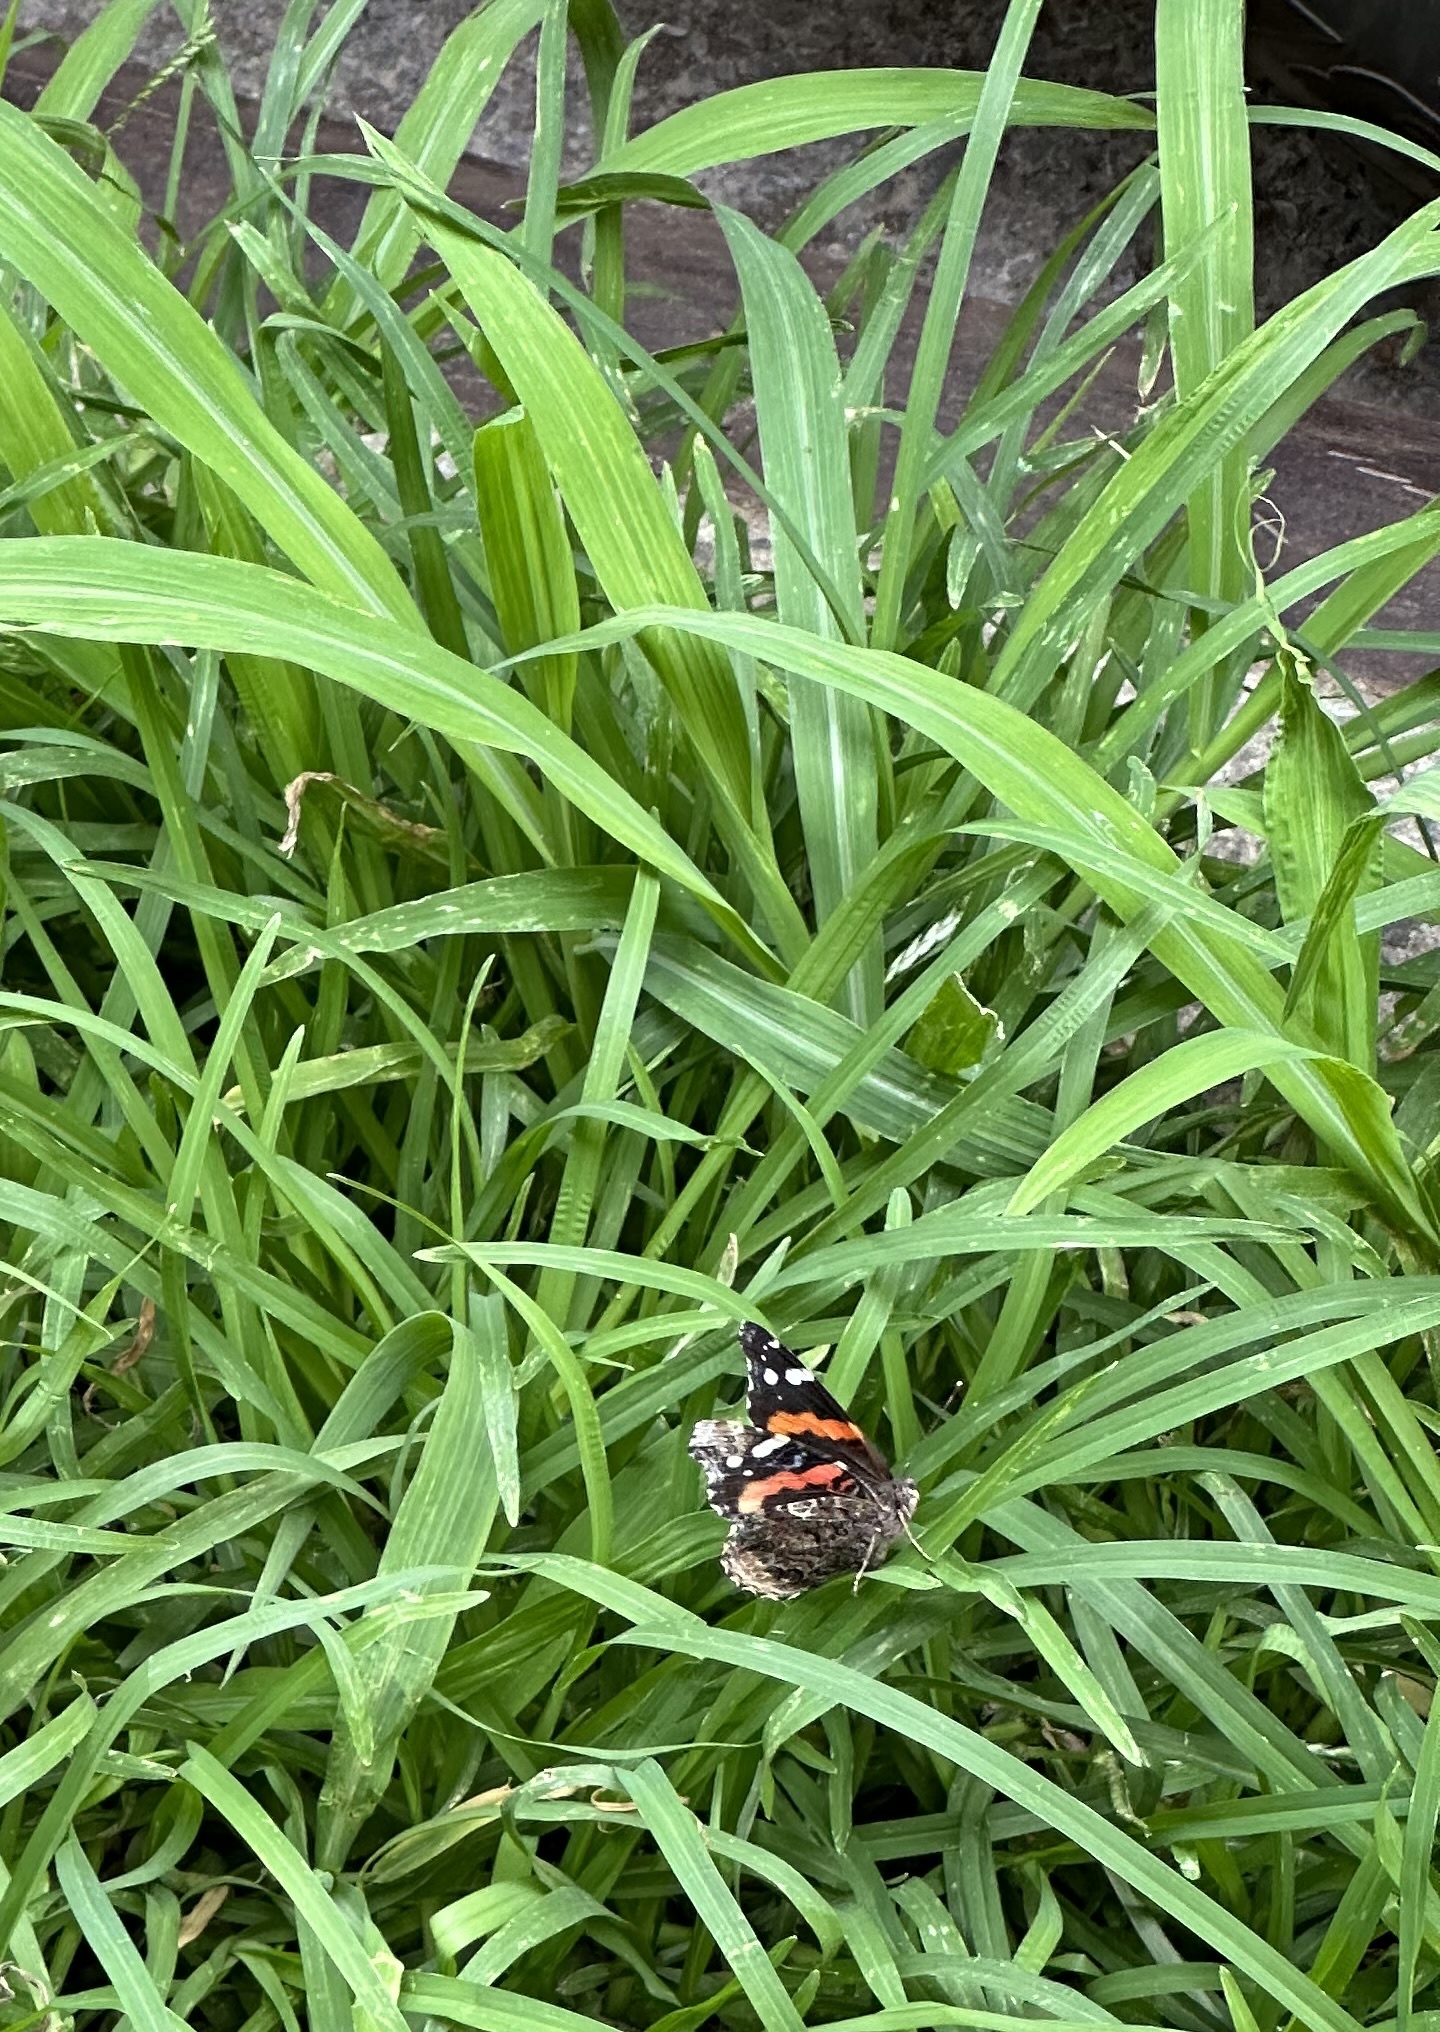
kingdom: Animalia
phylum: Arthropoda
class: Insecta
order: Lepidoptera
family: Nymphalidae
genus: Vanessa
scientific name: Vanessa atalanta
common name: Red admiral
